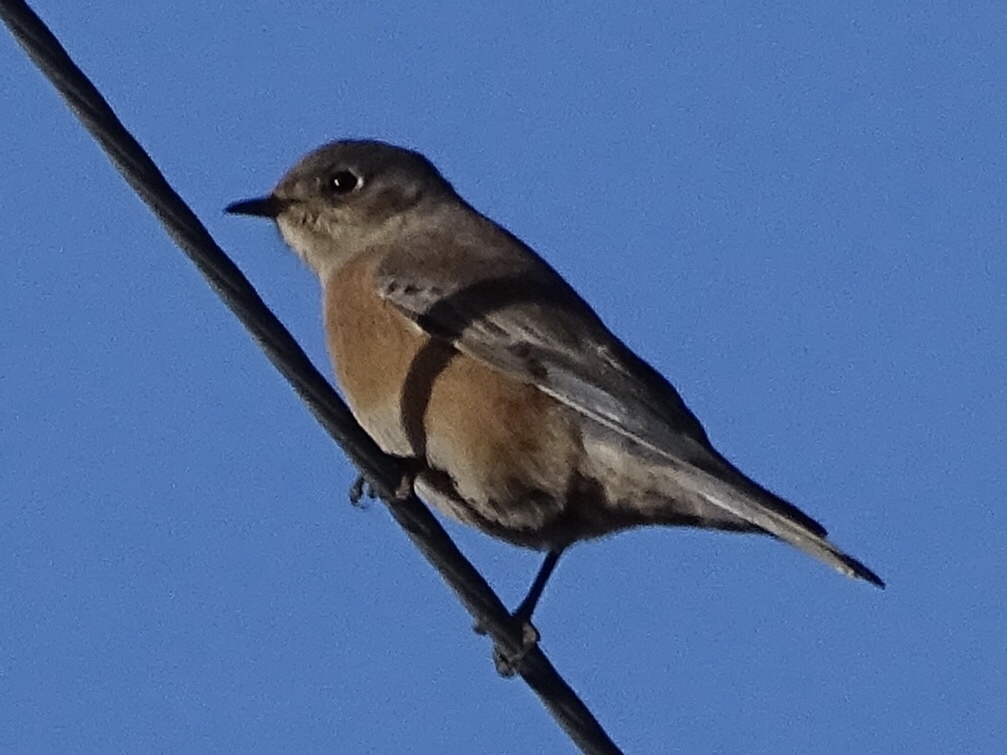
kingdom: Animalia
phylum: Chordata
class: Aves
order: Passeriformes
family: Turdidae
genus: Sialia
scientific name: Sialia mexicana
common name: Western bluebird
